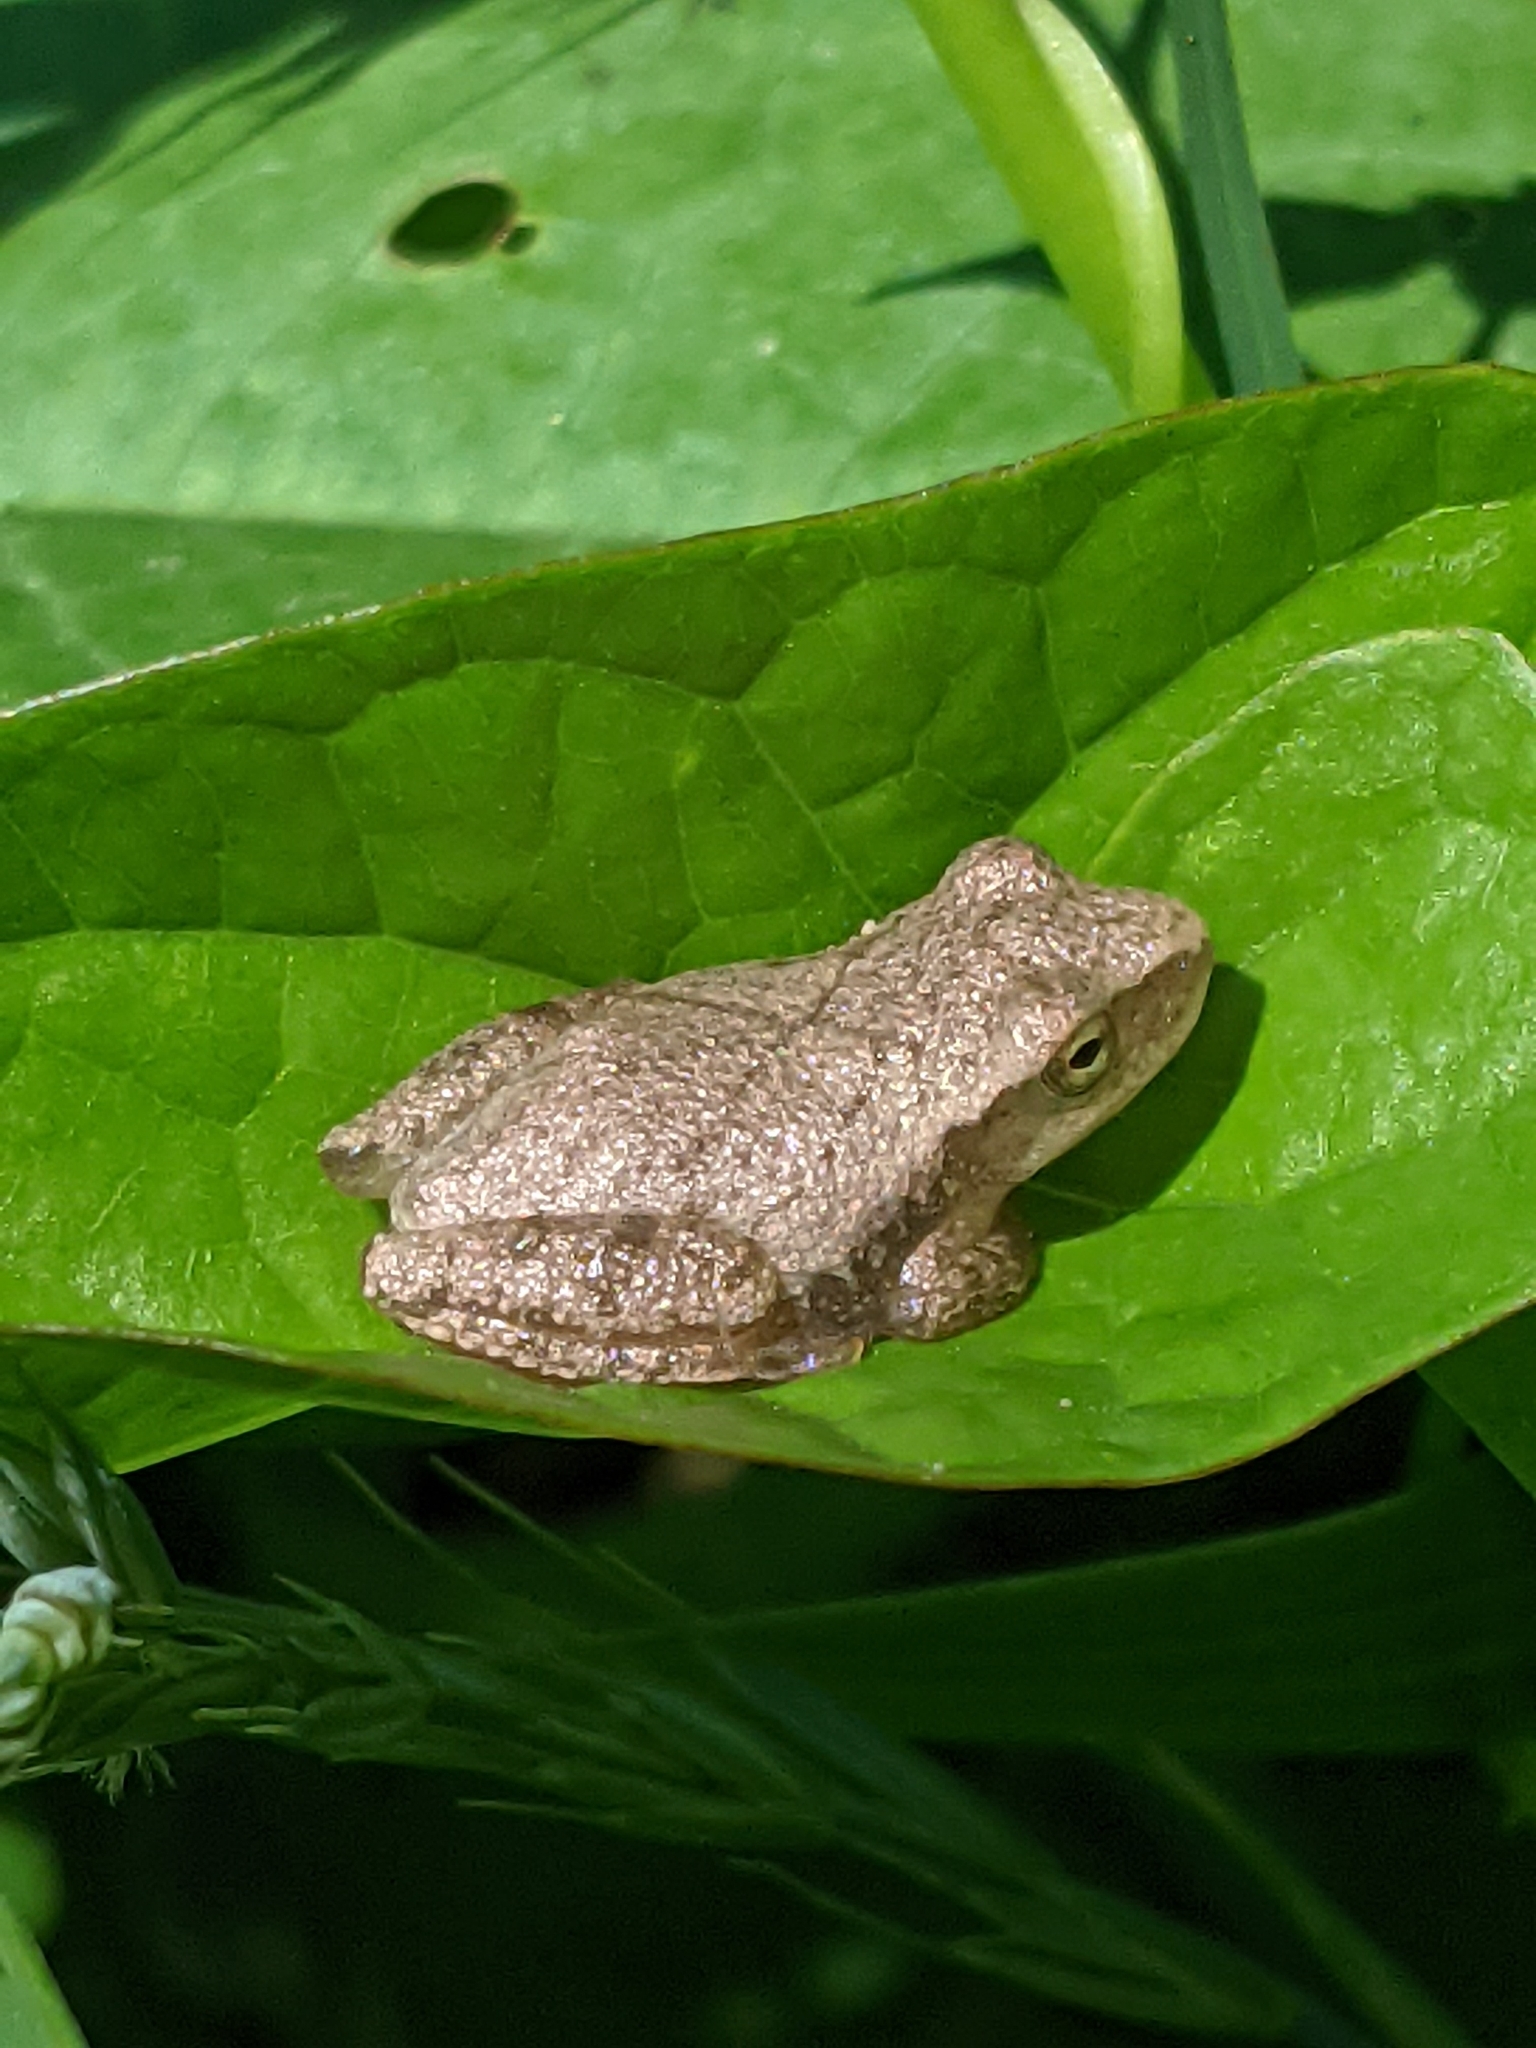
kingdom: Animalia
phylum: Chordata
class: Amphibia
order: Anura
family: Hylidae
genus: Pseudacris
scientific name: Pseudacris crucifer
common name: Spring peeper
